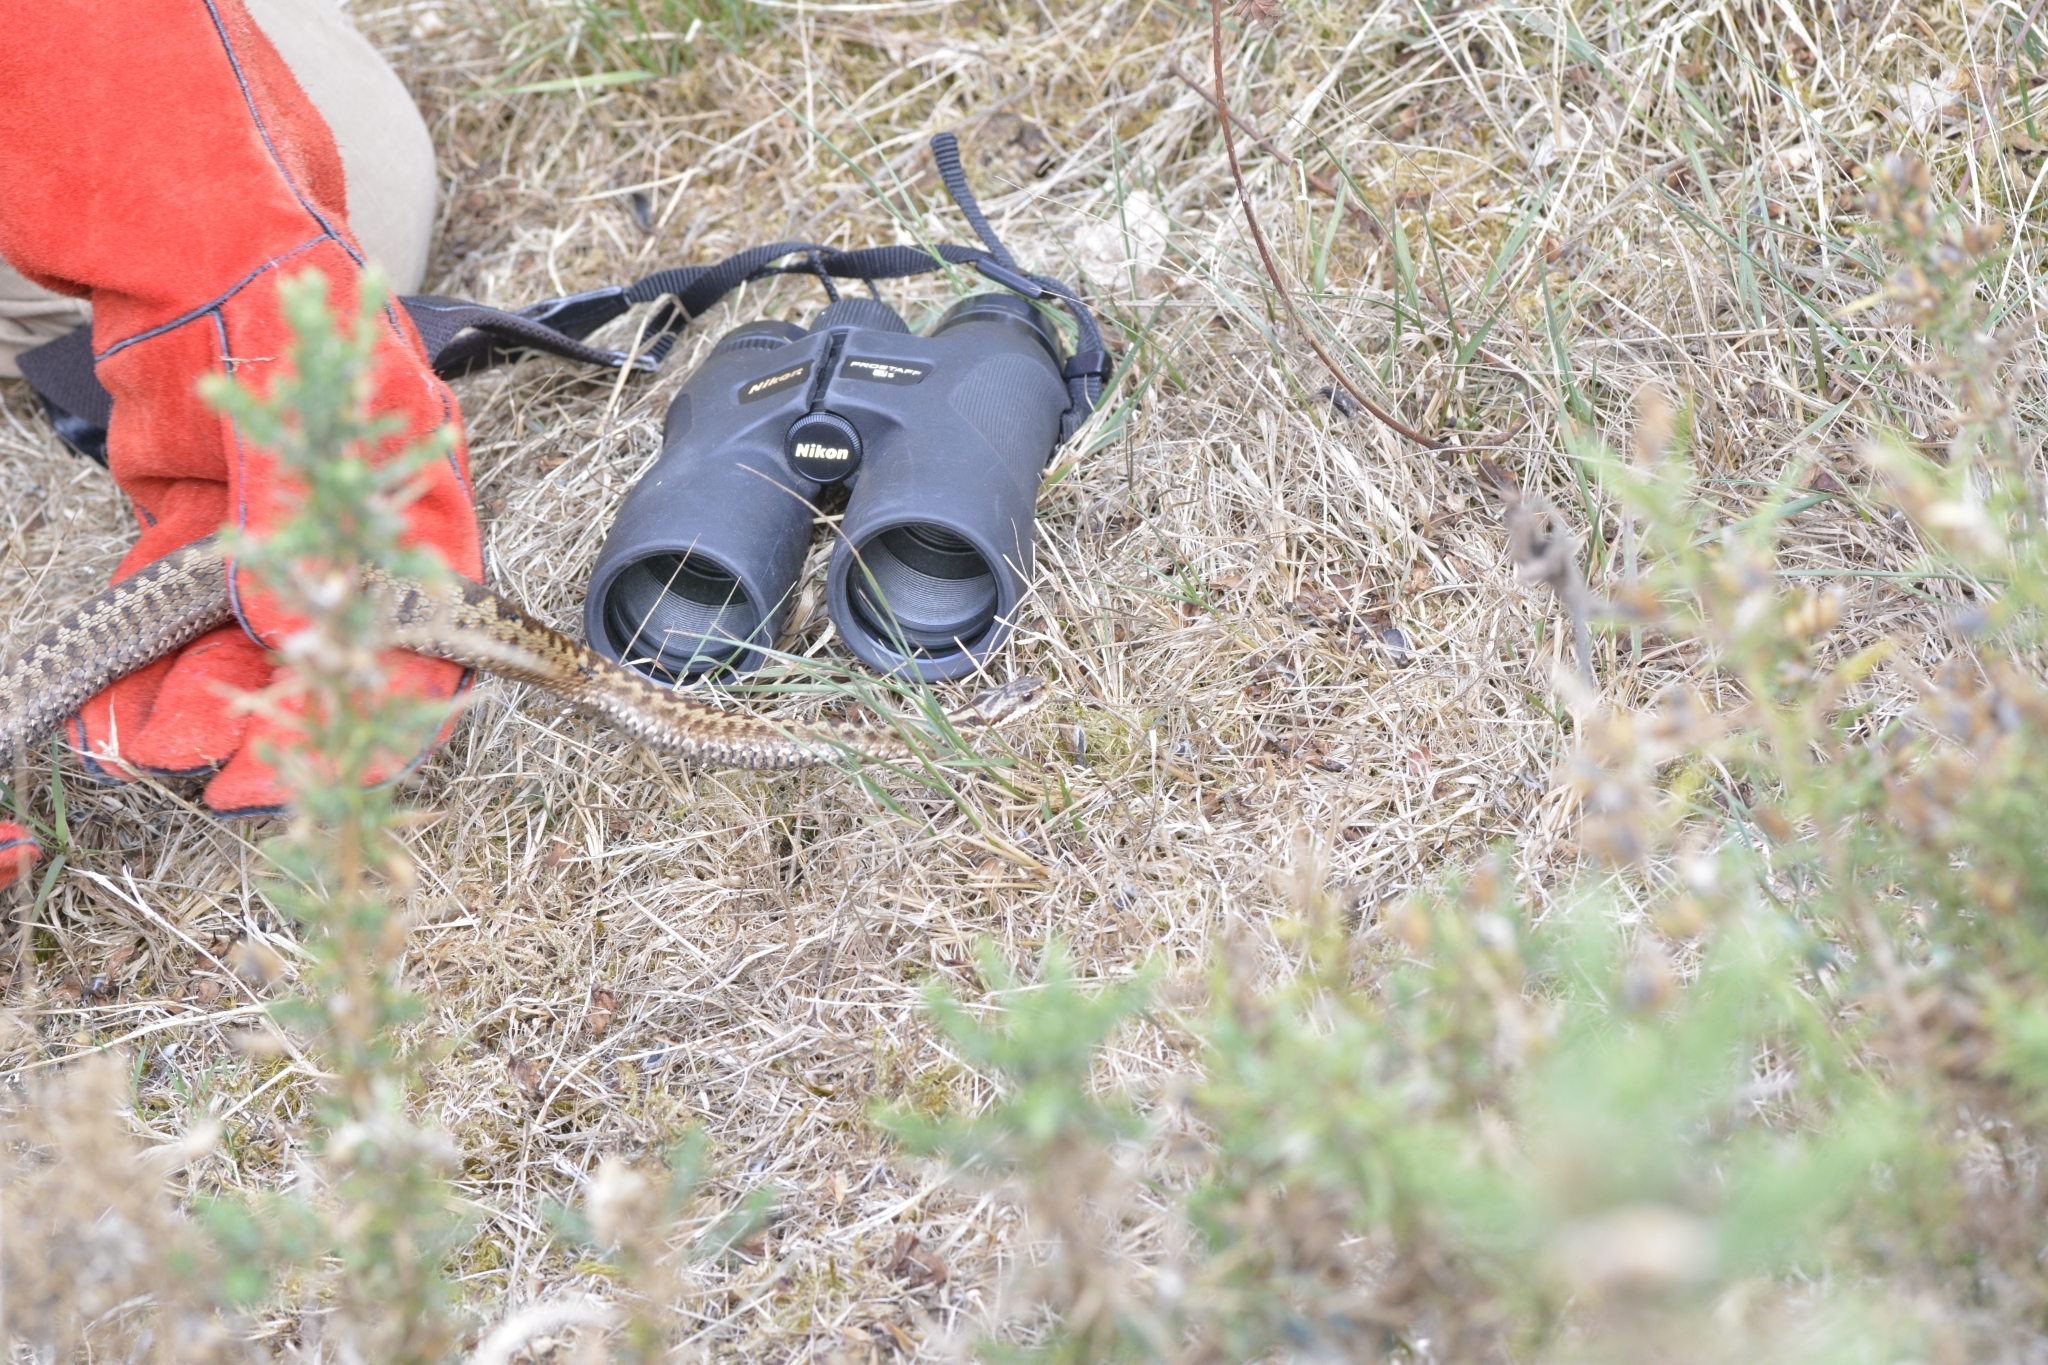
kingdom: Animalia
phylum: Chordata
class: Squamata
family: Viperidae
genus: Vipera
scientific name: Vipera berus
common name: Adder
